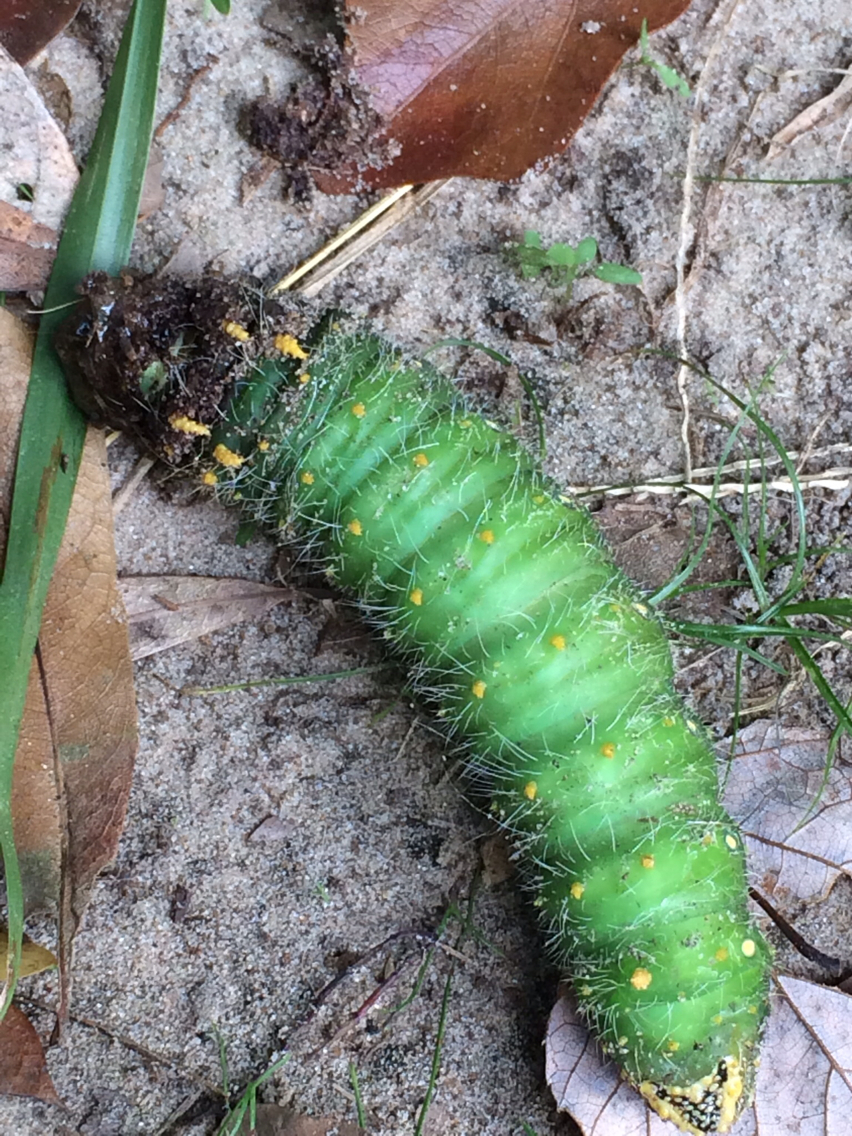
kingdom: Animalia
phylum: Arthropoda
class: Insecta
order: Lepidoptera
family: Saturniidae
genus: Eacles
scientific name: Eacles imperialis
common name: Imperial moth
